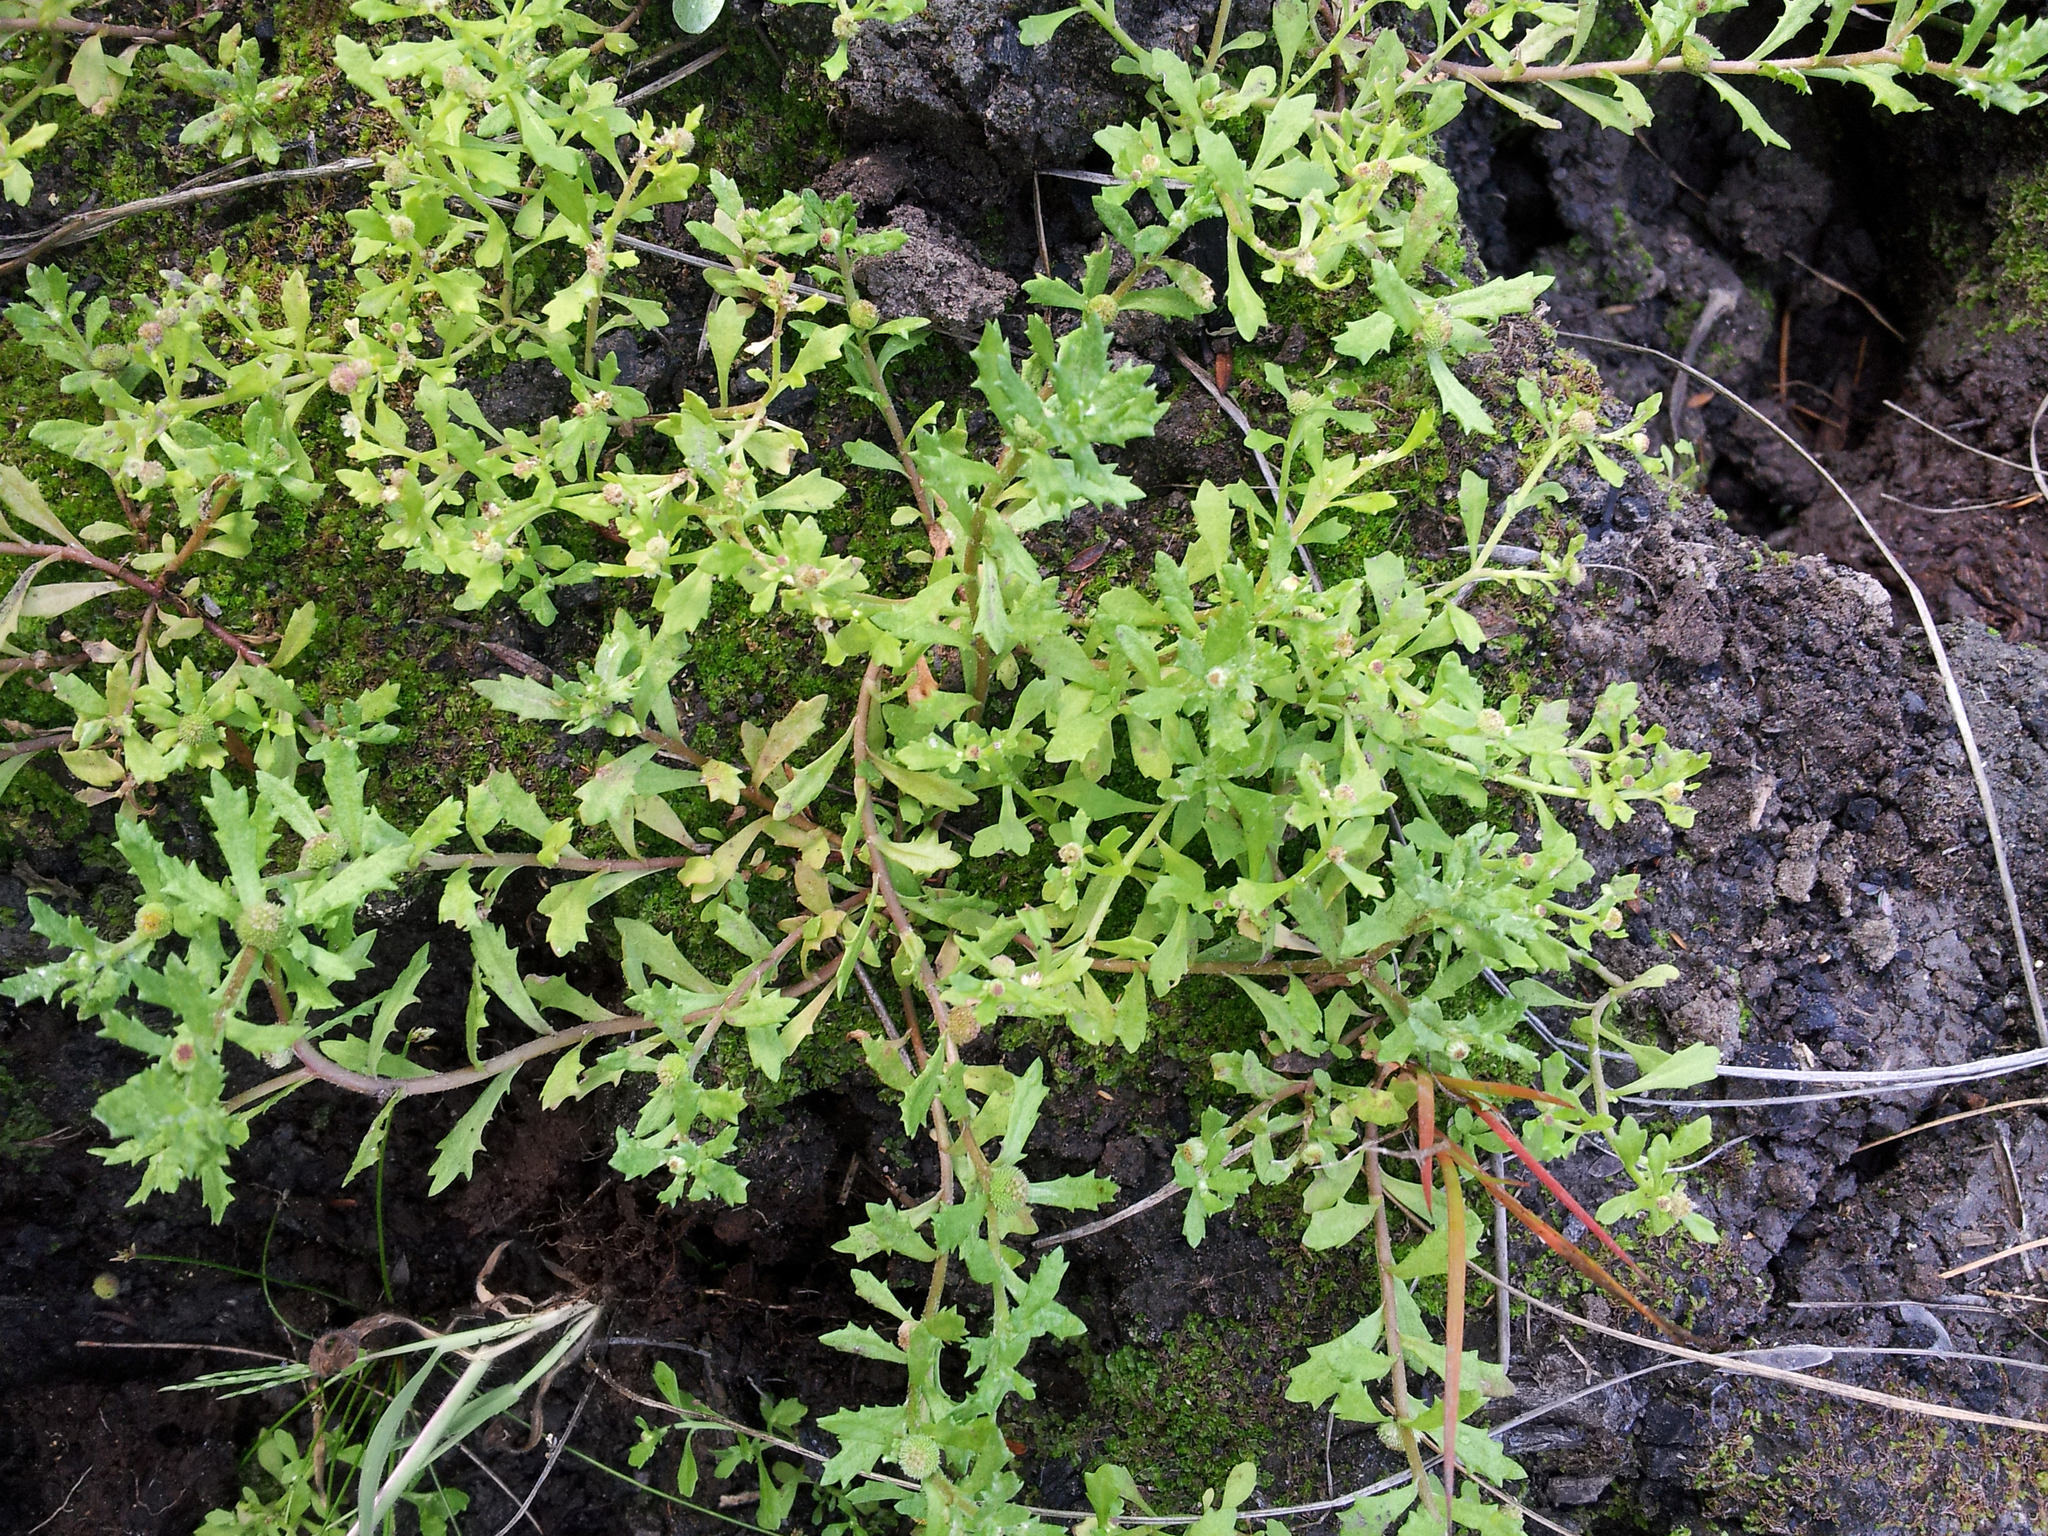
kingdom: Plantae
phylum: Tracheophyta
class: Magnoliopsida
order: Asterales
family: Asteraceae
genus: Centipeda
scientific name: Centipeda aotearoana
